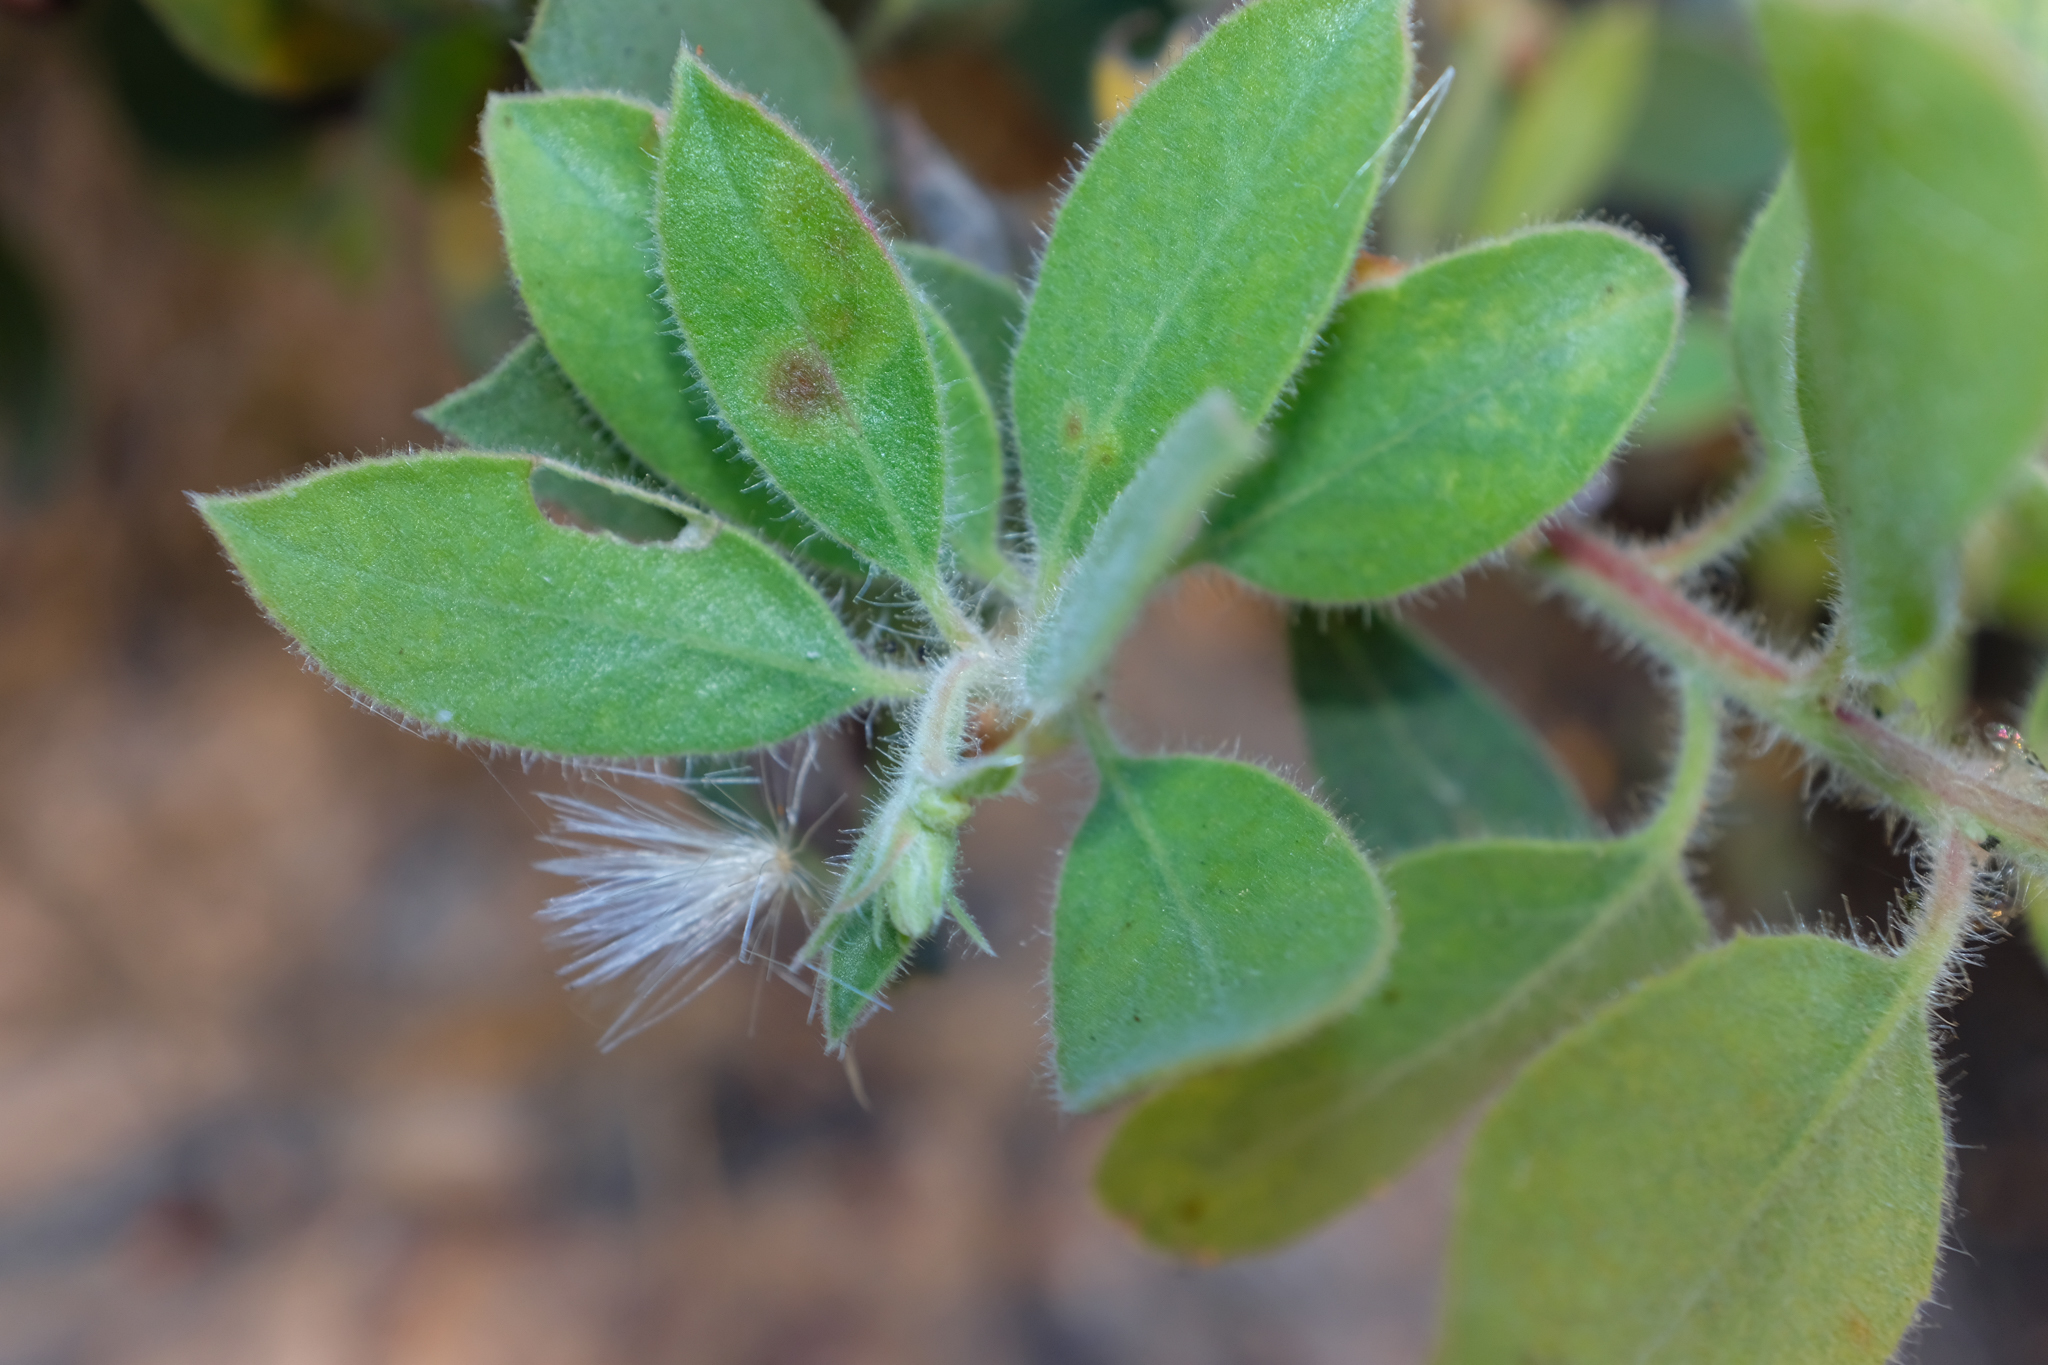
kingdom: Plantae
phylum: Tracheophyta
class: Magnoliopsida
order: Ericales
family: Ericaceae
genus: Arctostaphylos
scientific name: Arctostaphylos glandulosa
